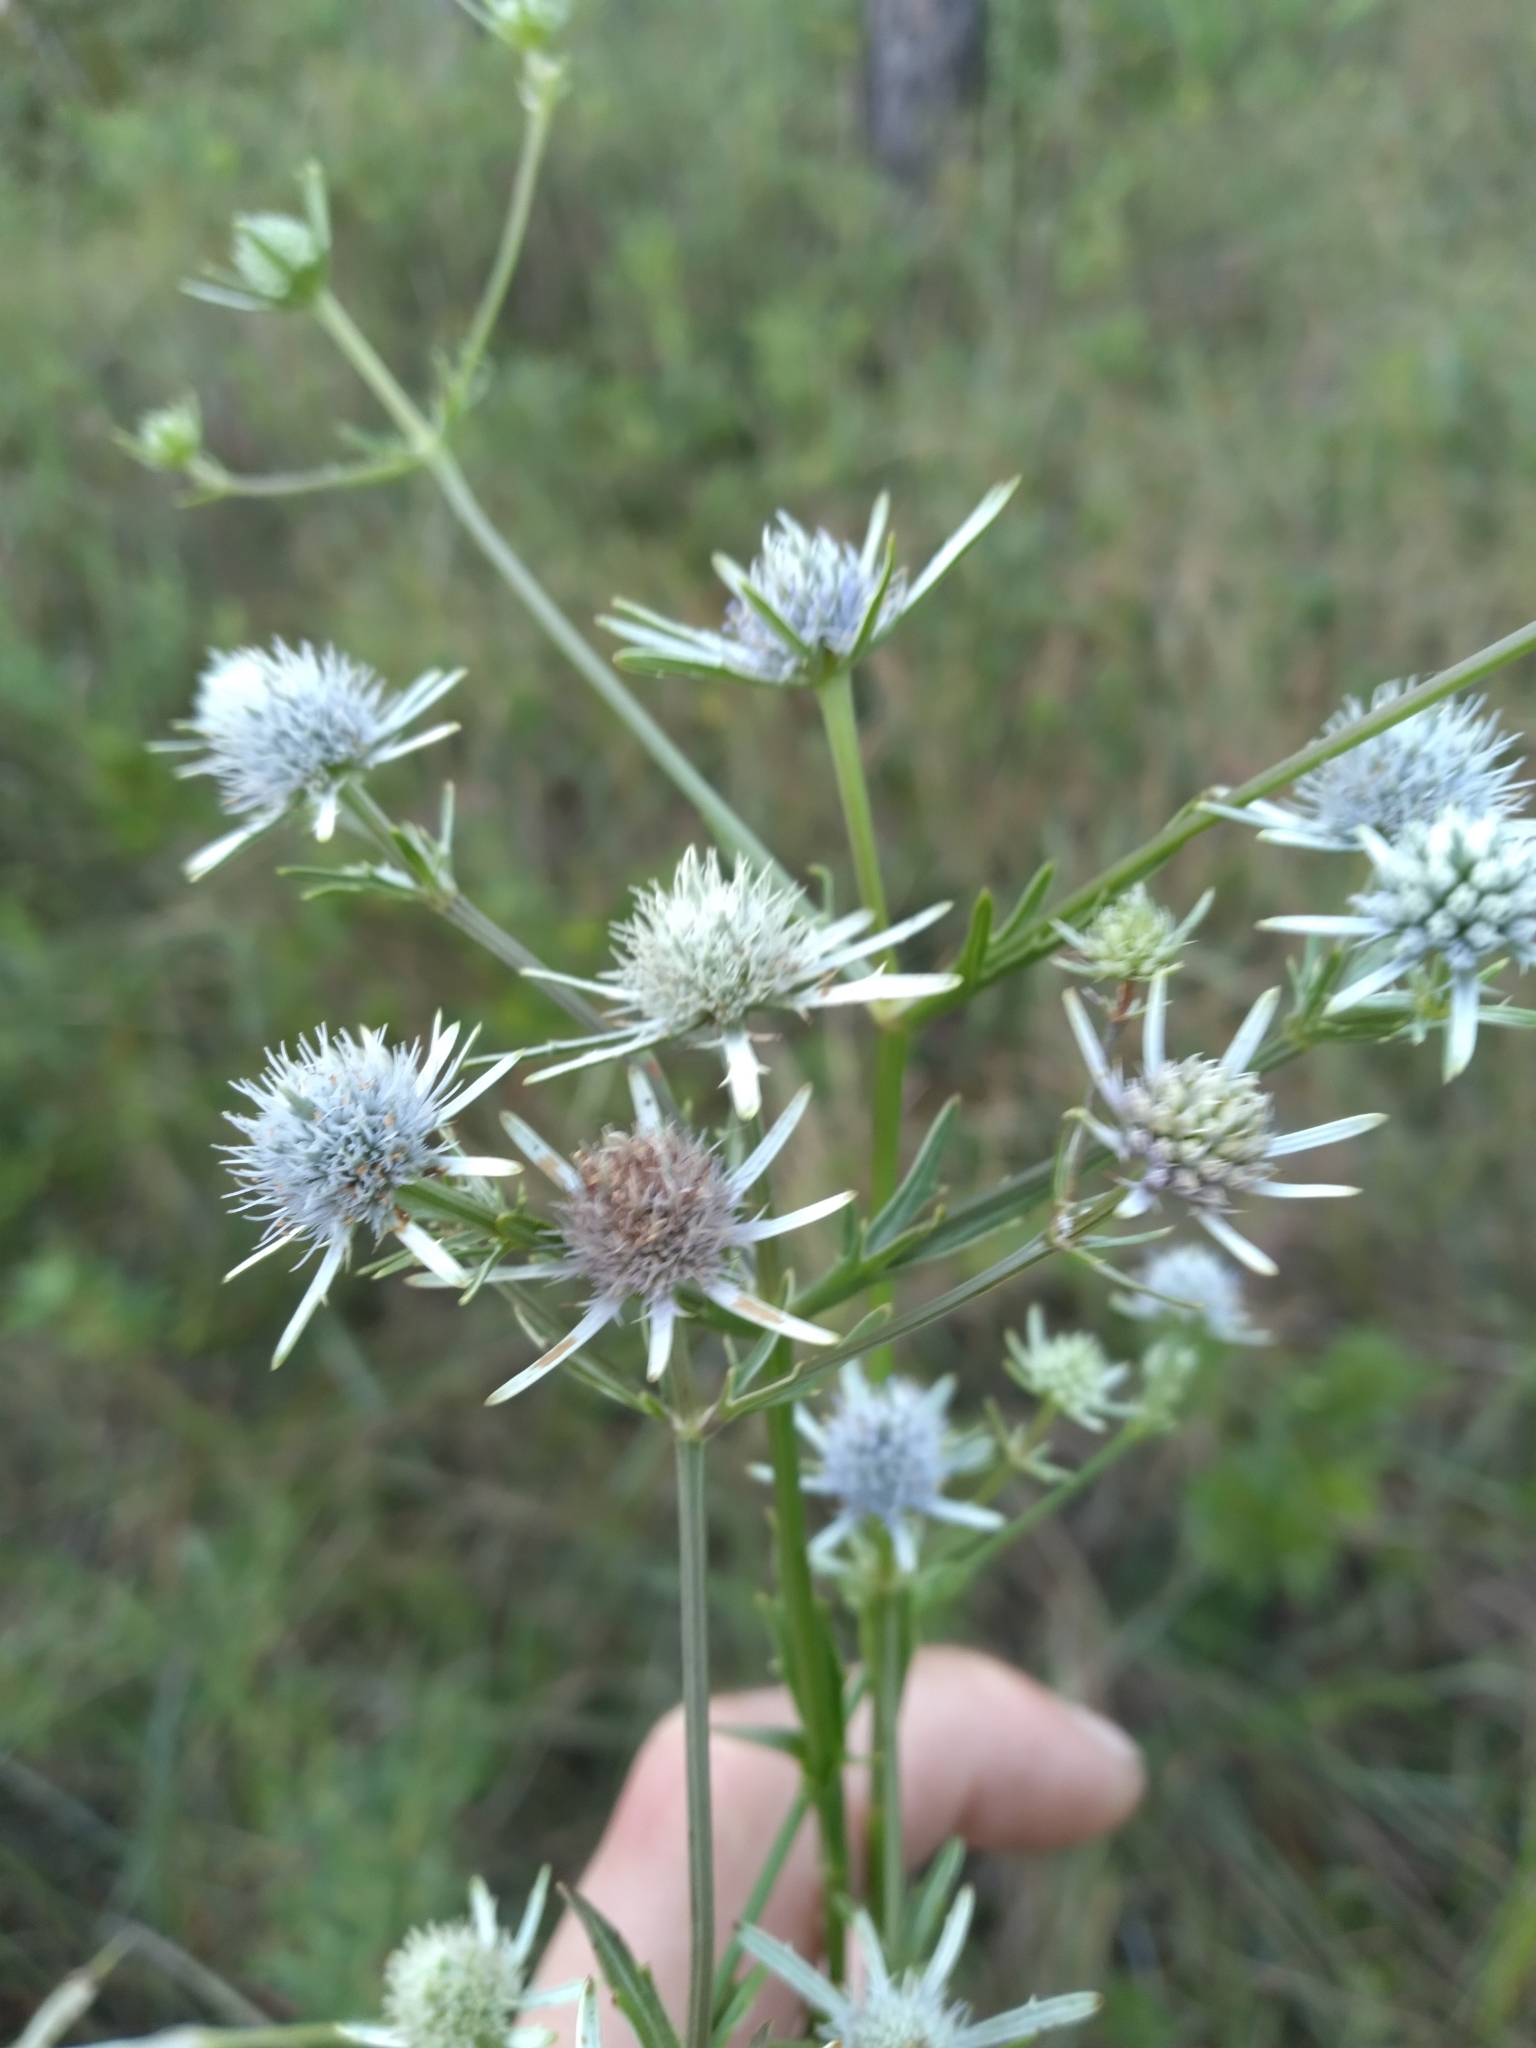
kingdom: Plantae
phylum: Tracheophyta
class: Magnoliopsida
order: Apiales
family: Apiaceae
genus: Eryngium
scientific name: Eryngium integrifolium
